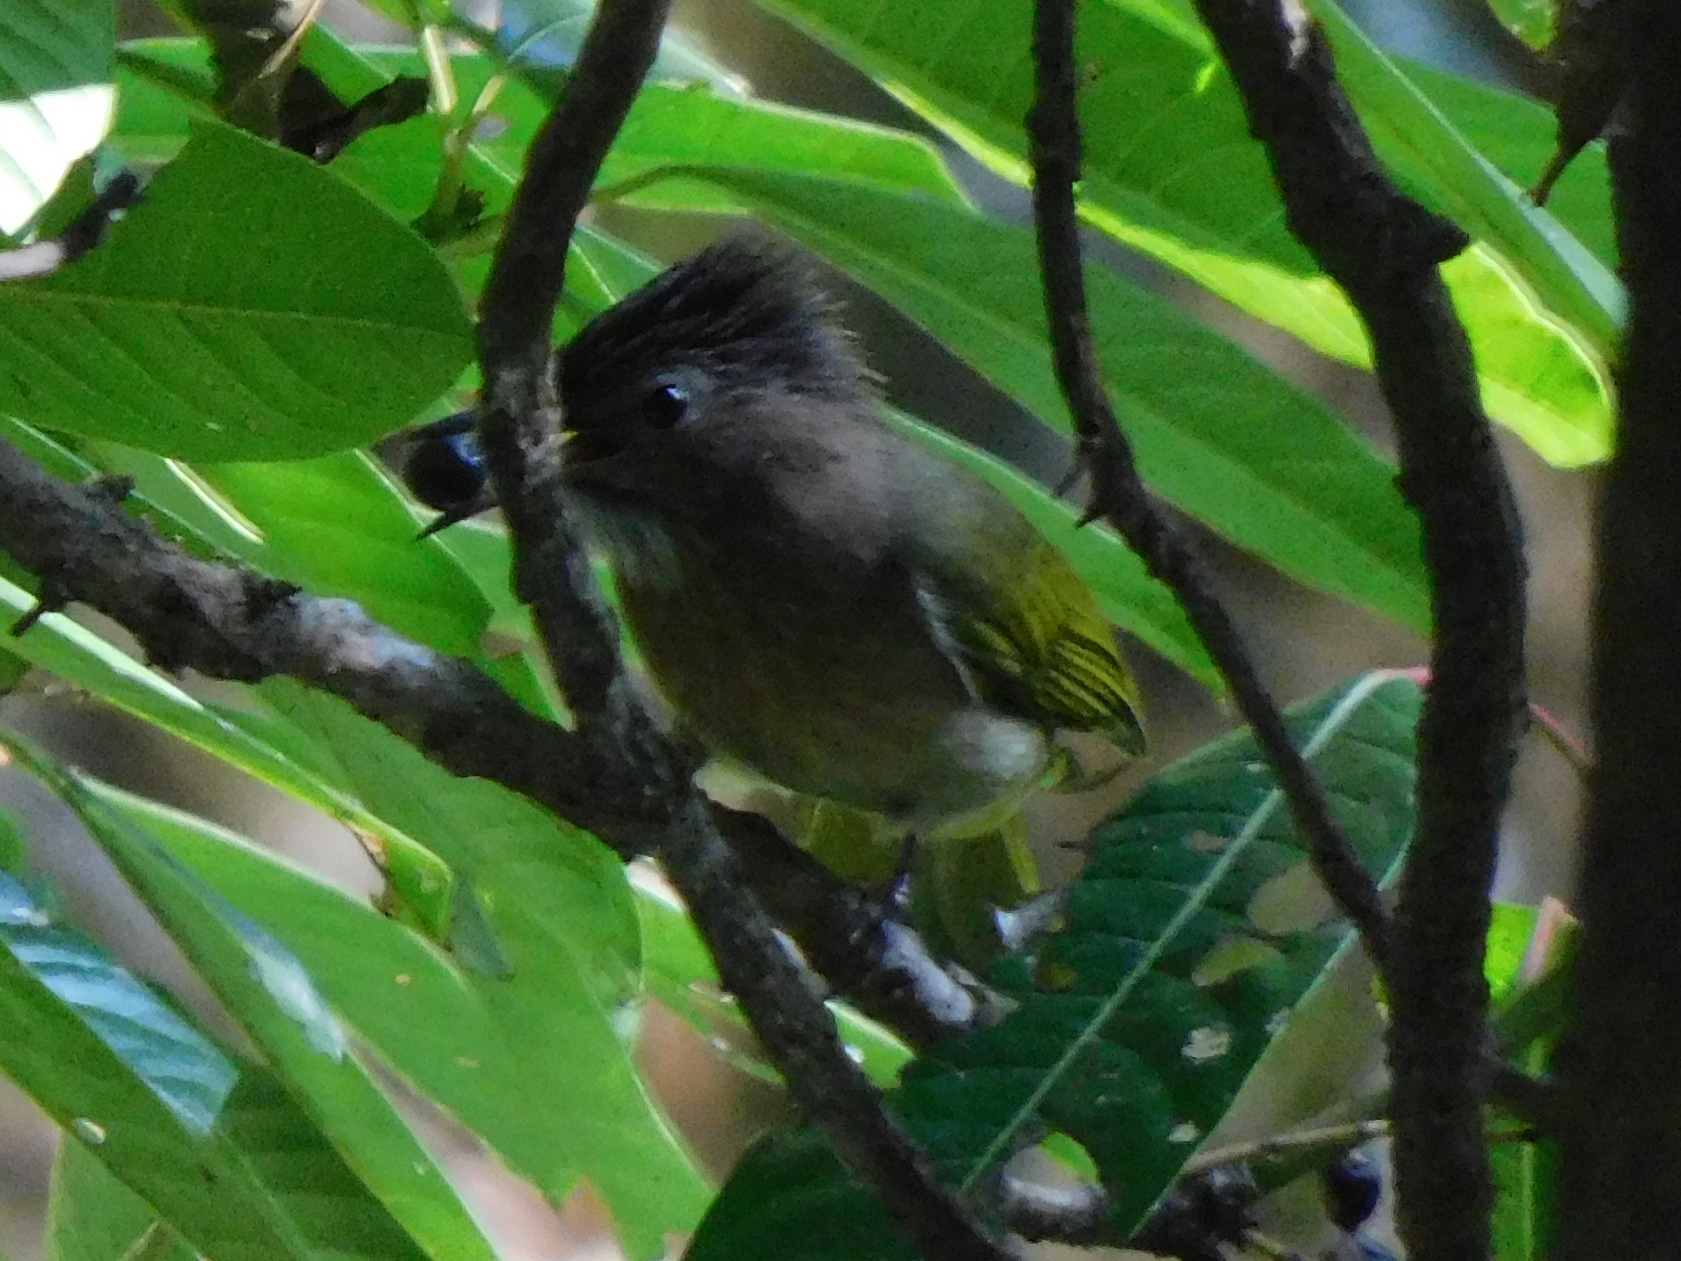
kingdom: Animalia
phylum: Chordata
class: Aves
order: Passeriformes
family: Pycnonotidae
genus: Ixos
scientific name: Ixos mcclellandii
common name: Mountain bulbul
